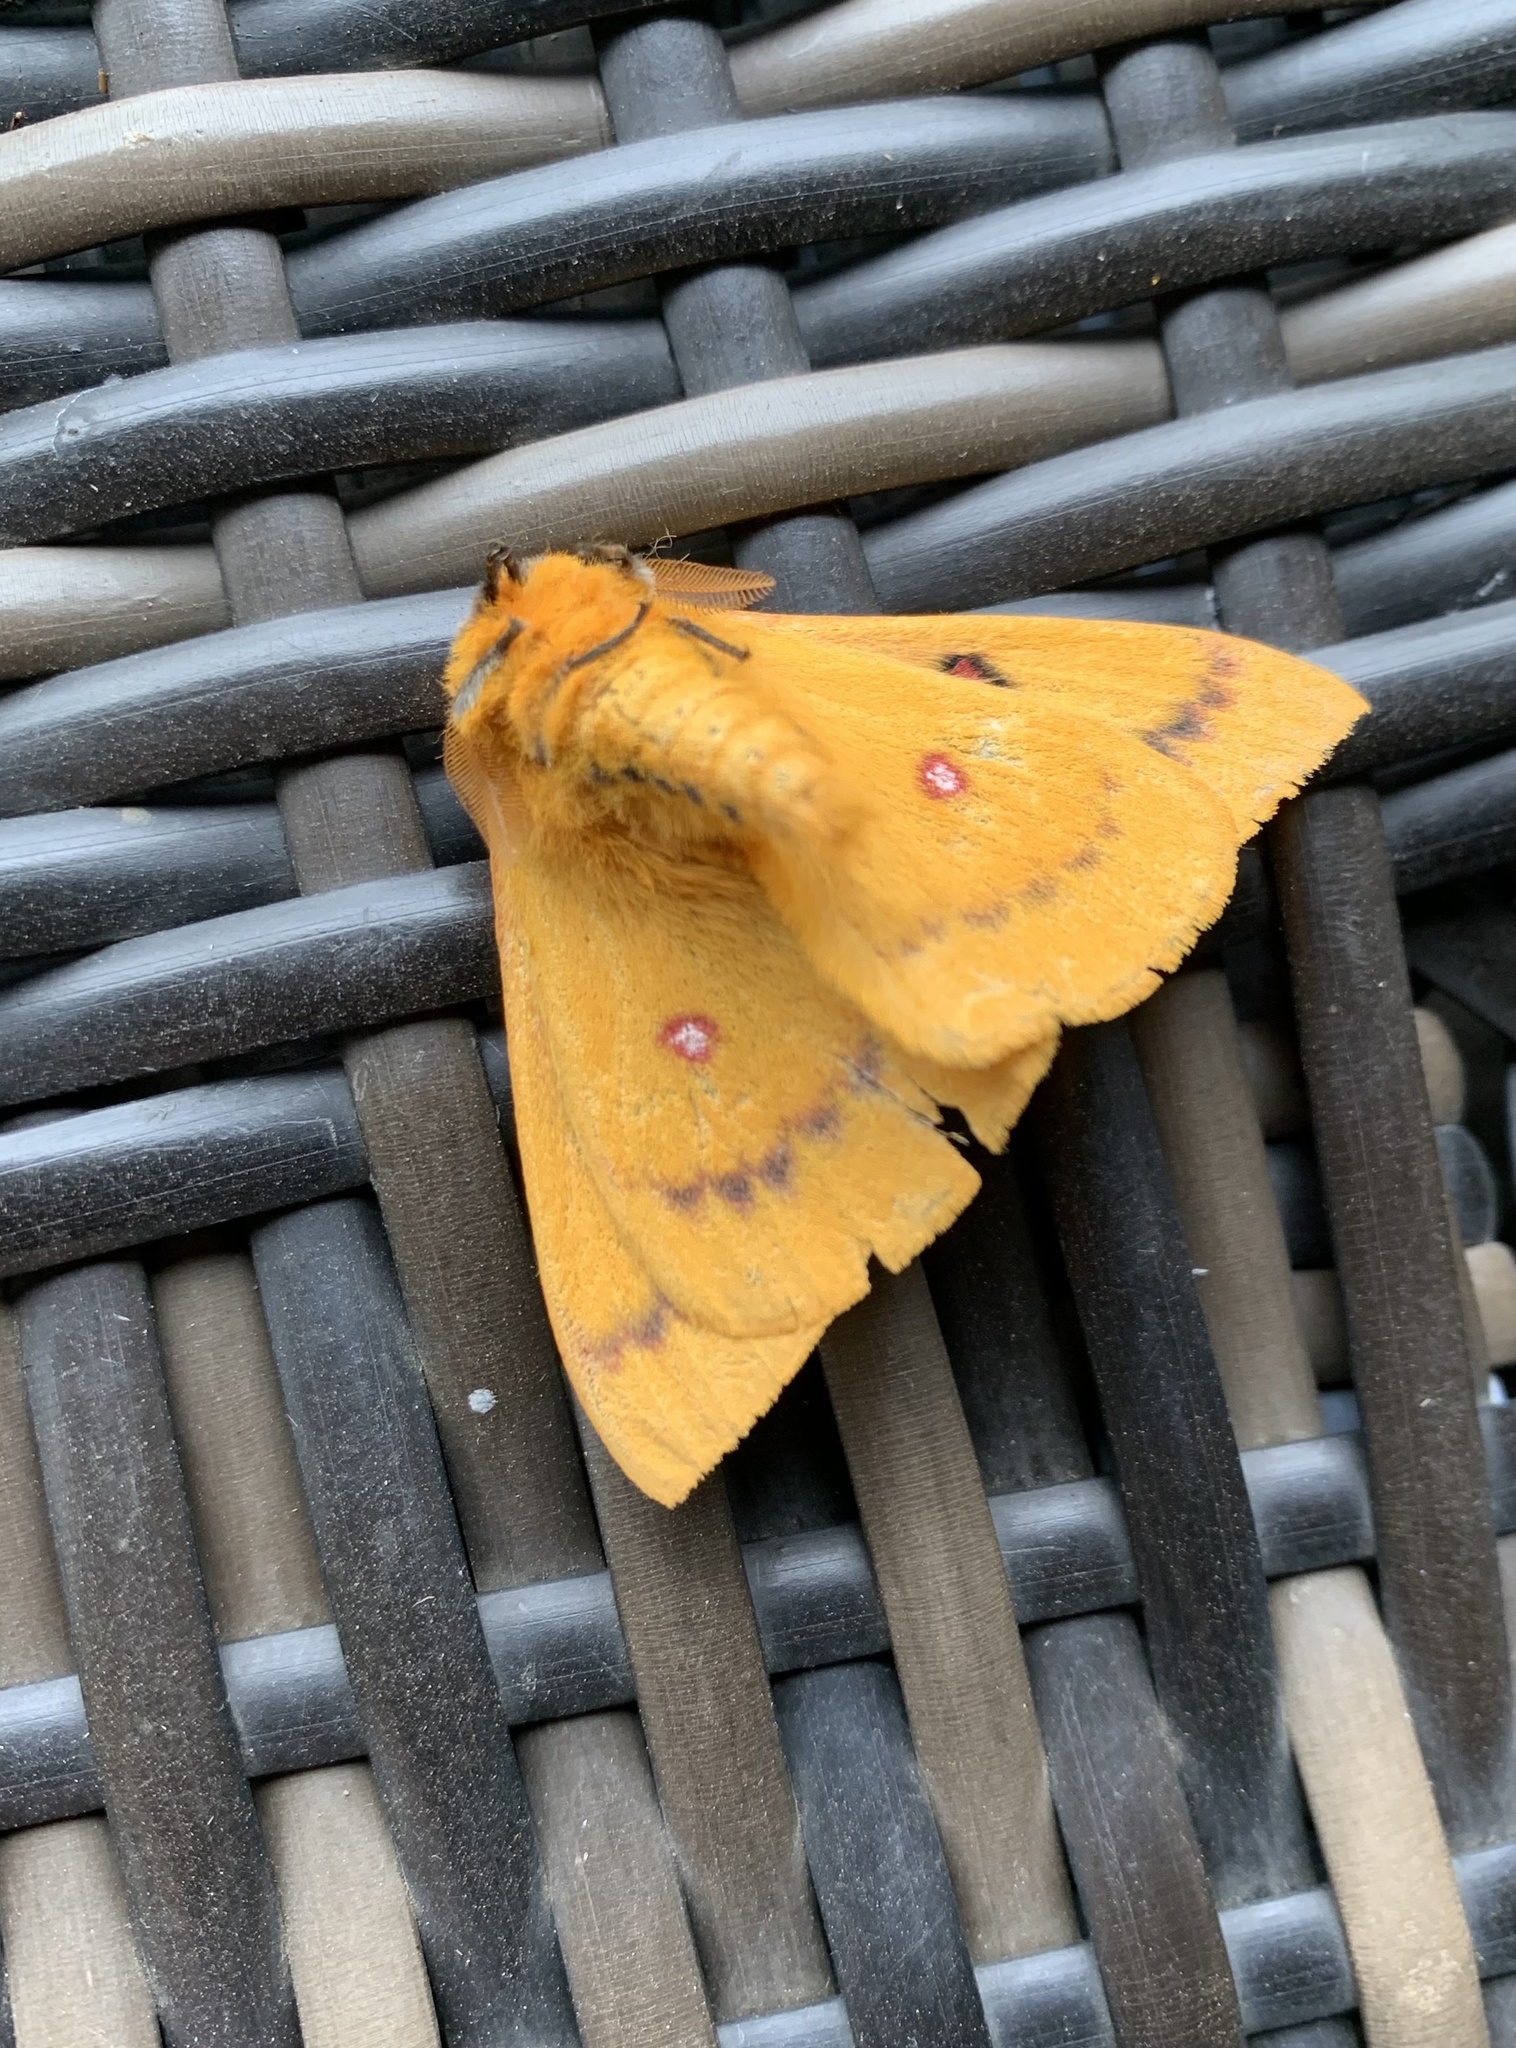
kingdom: Animalia
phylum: Arthropoda
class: Insecta
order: Lepidoptera
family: Saturniidae
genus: Adetomeris
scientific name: Adetomeris erythrops
